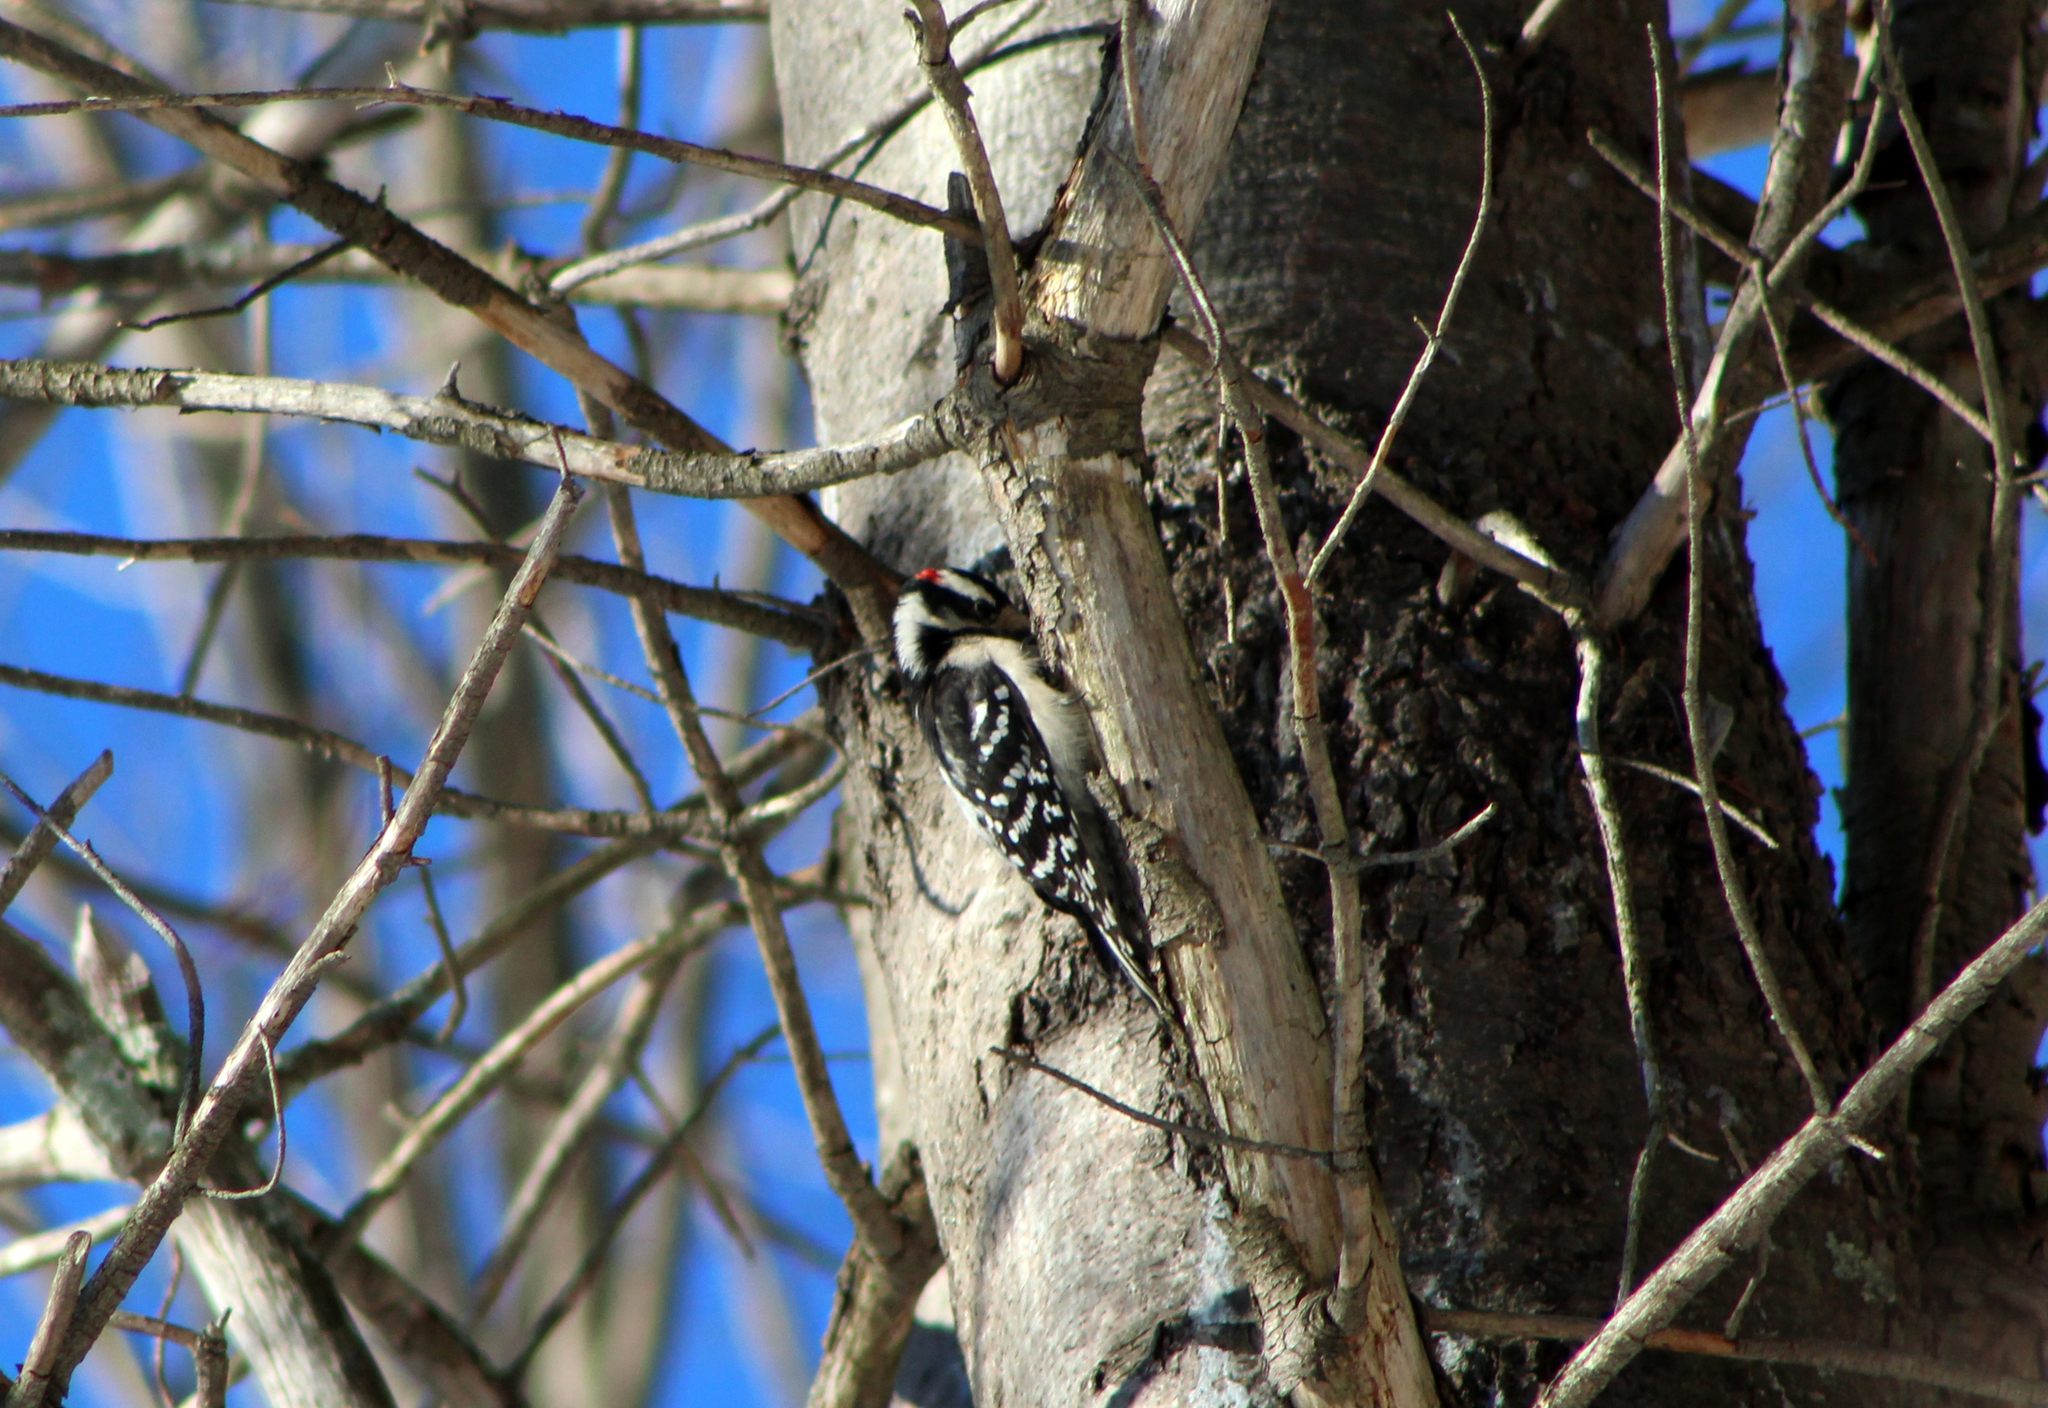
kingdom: Animalia
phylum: Chordata
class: Aves
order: Piciformes
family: Picidae
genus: Dryobates
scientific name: Dryobates pubescens
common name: Downy woodpecker
